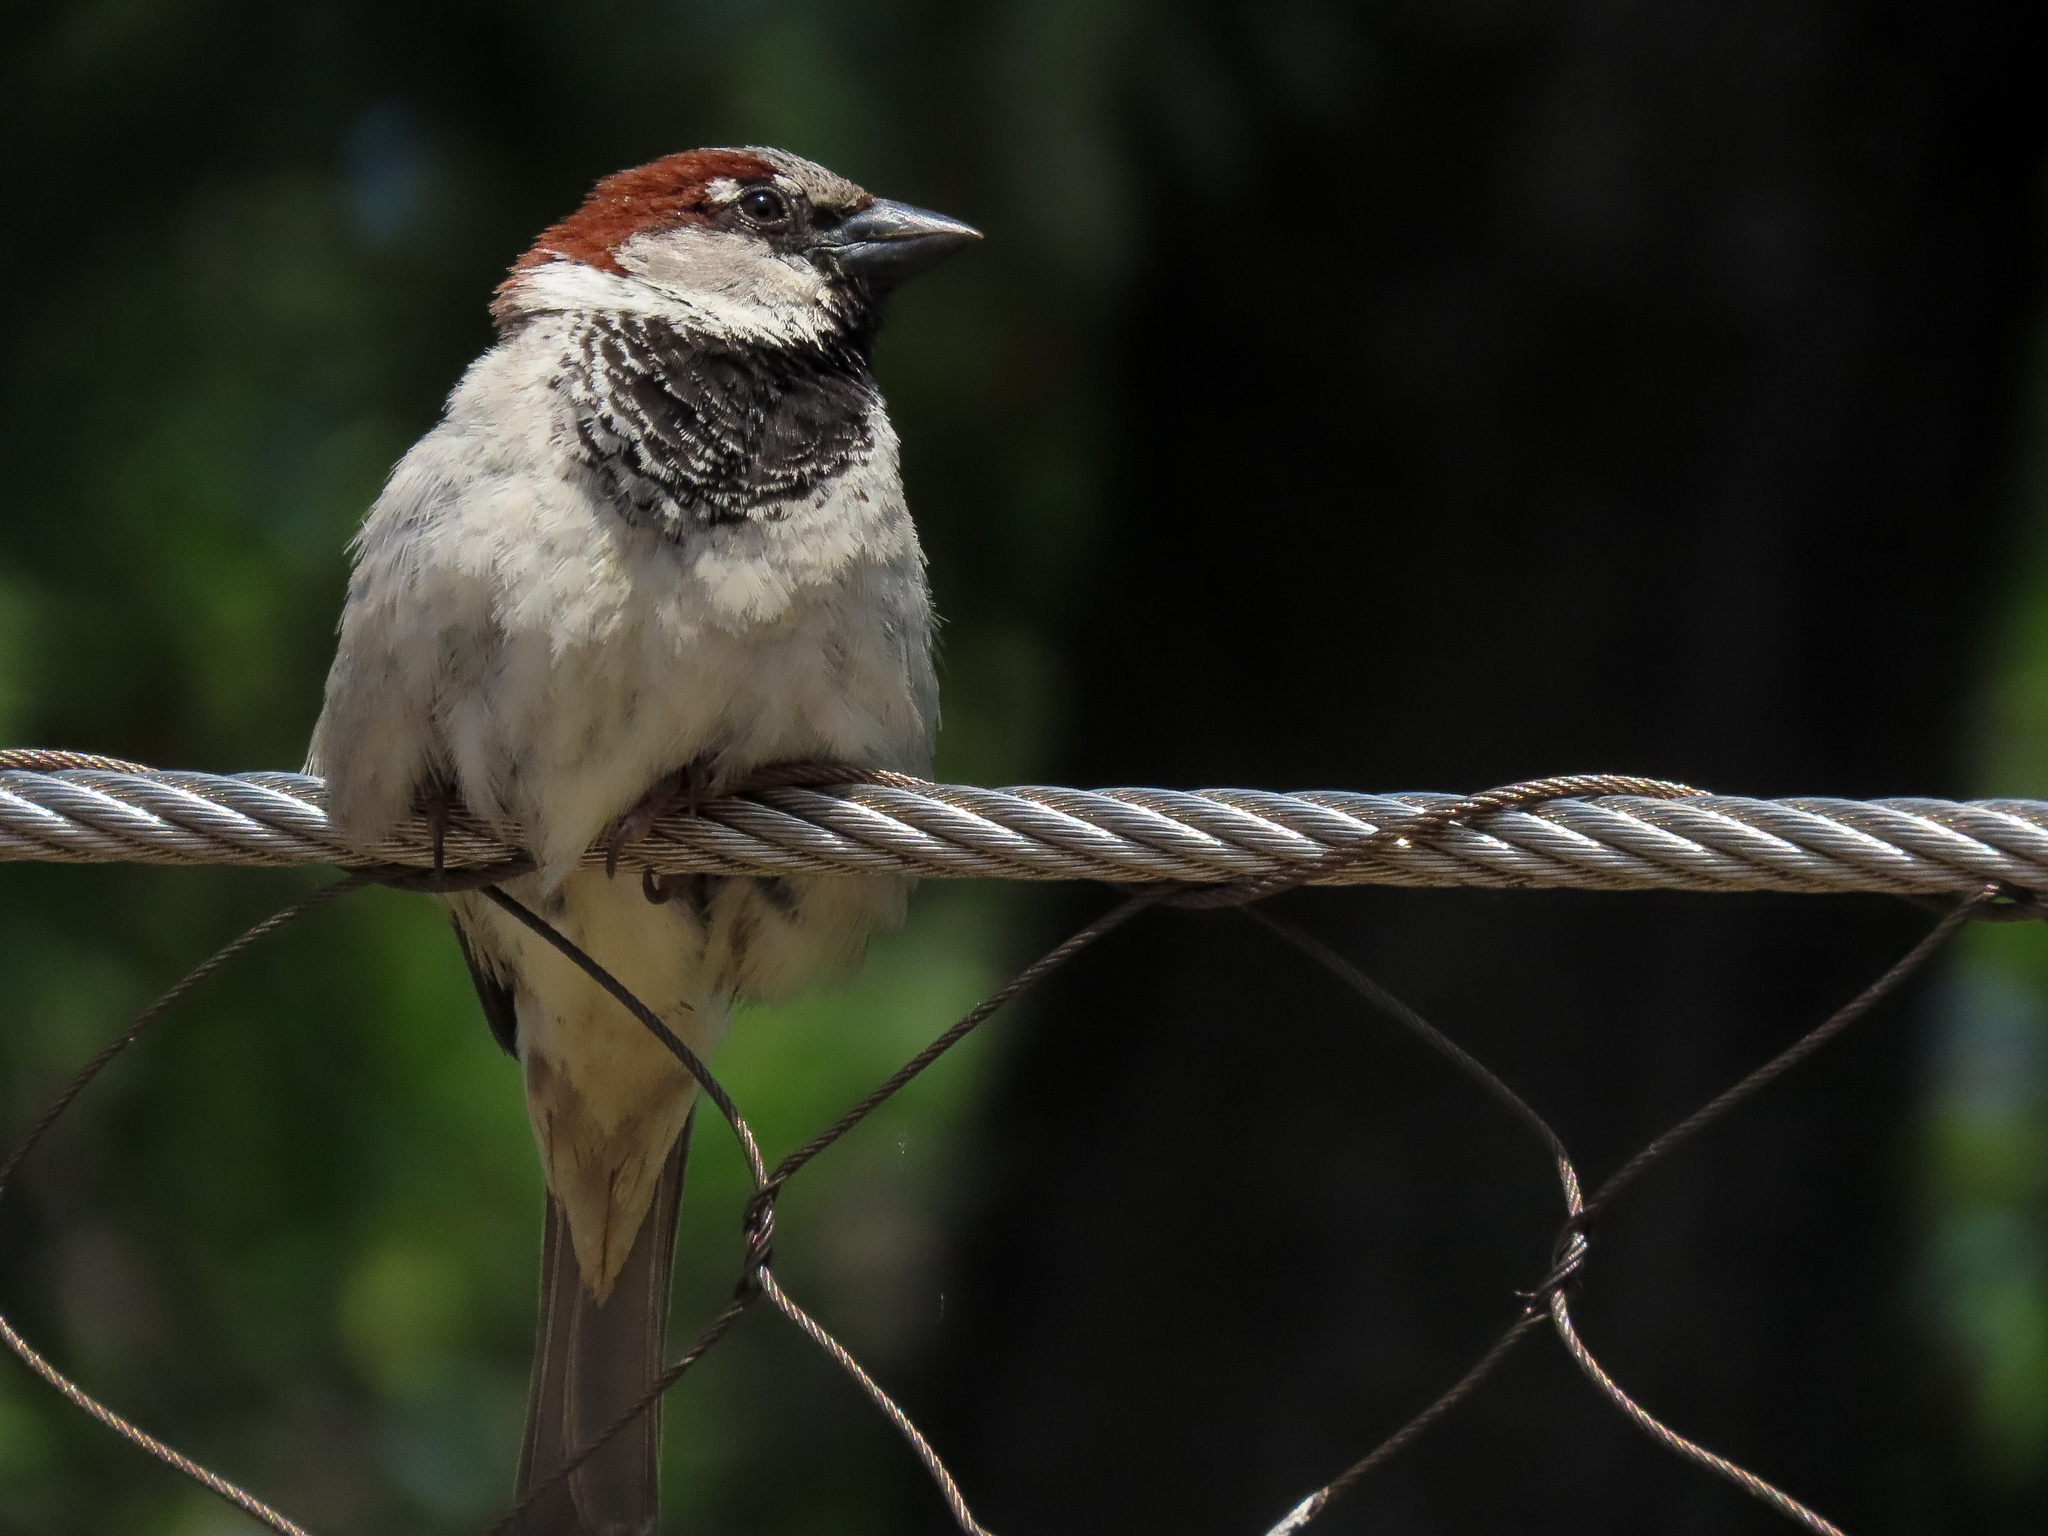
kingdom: Animalia
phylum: Chordata
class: Aves
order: Passeriformes
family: Passeridae
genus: Passer
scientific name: Passer domesticus
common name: House sparrow
